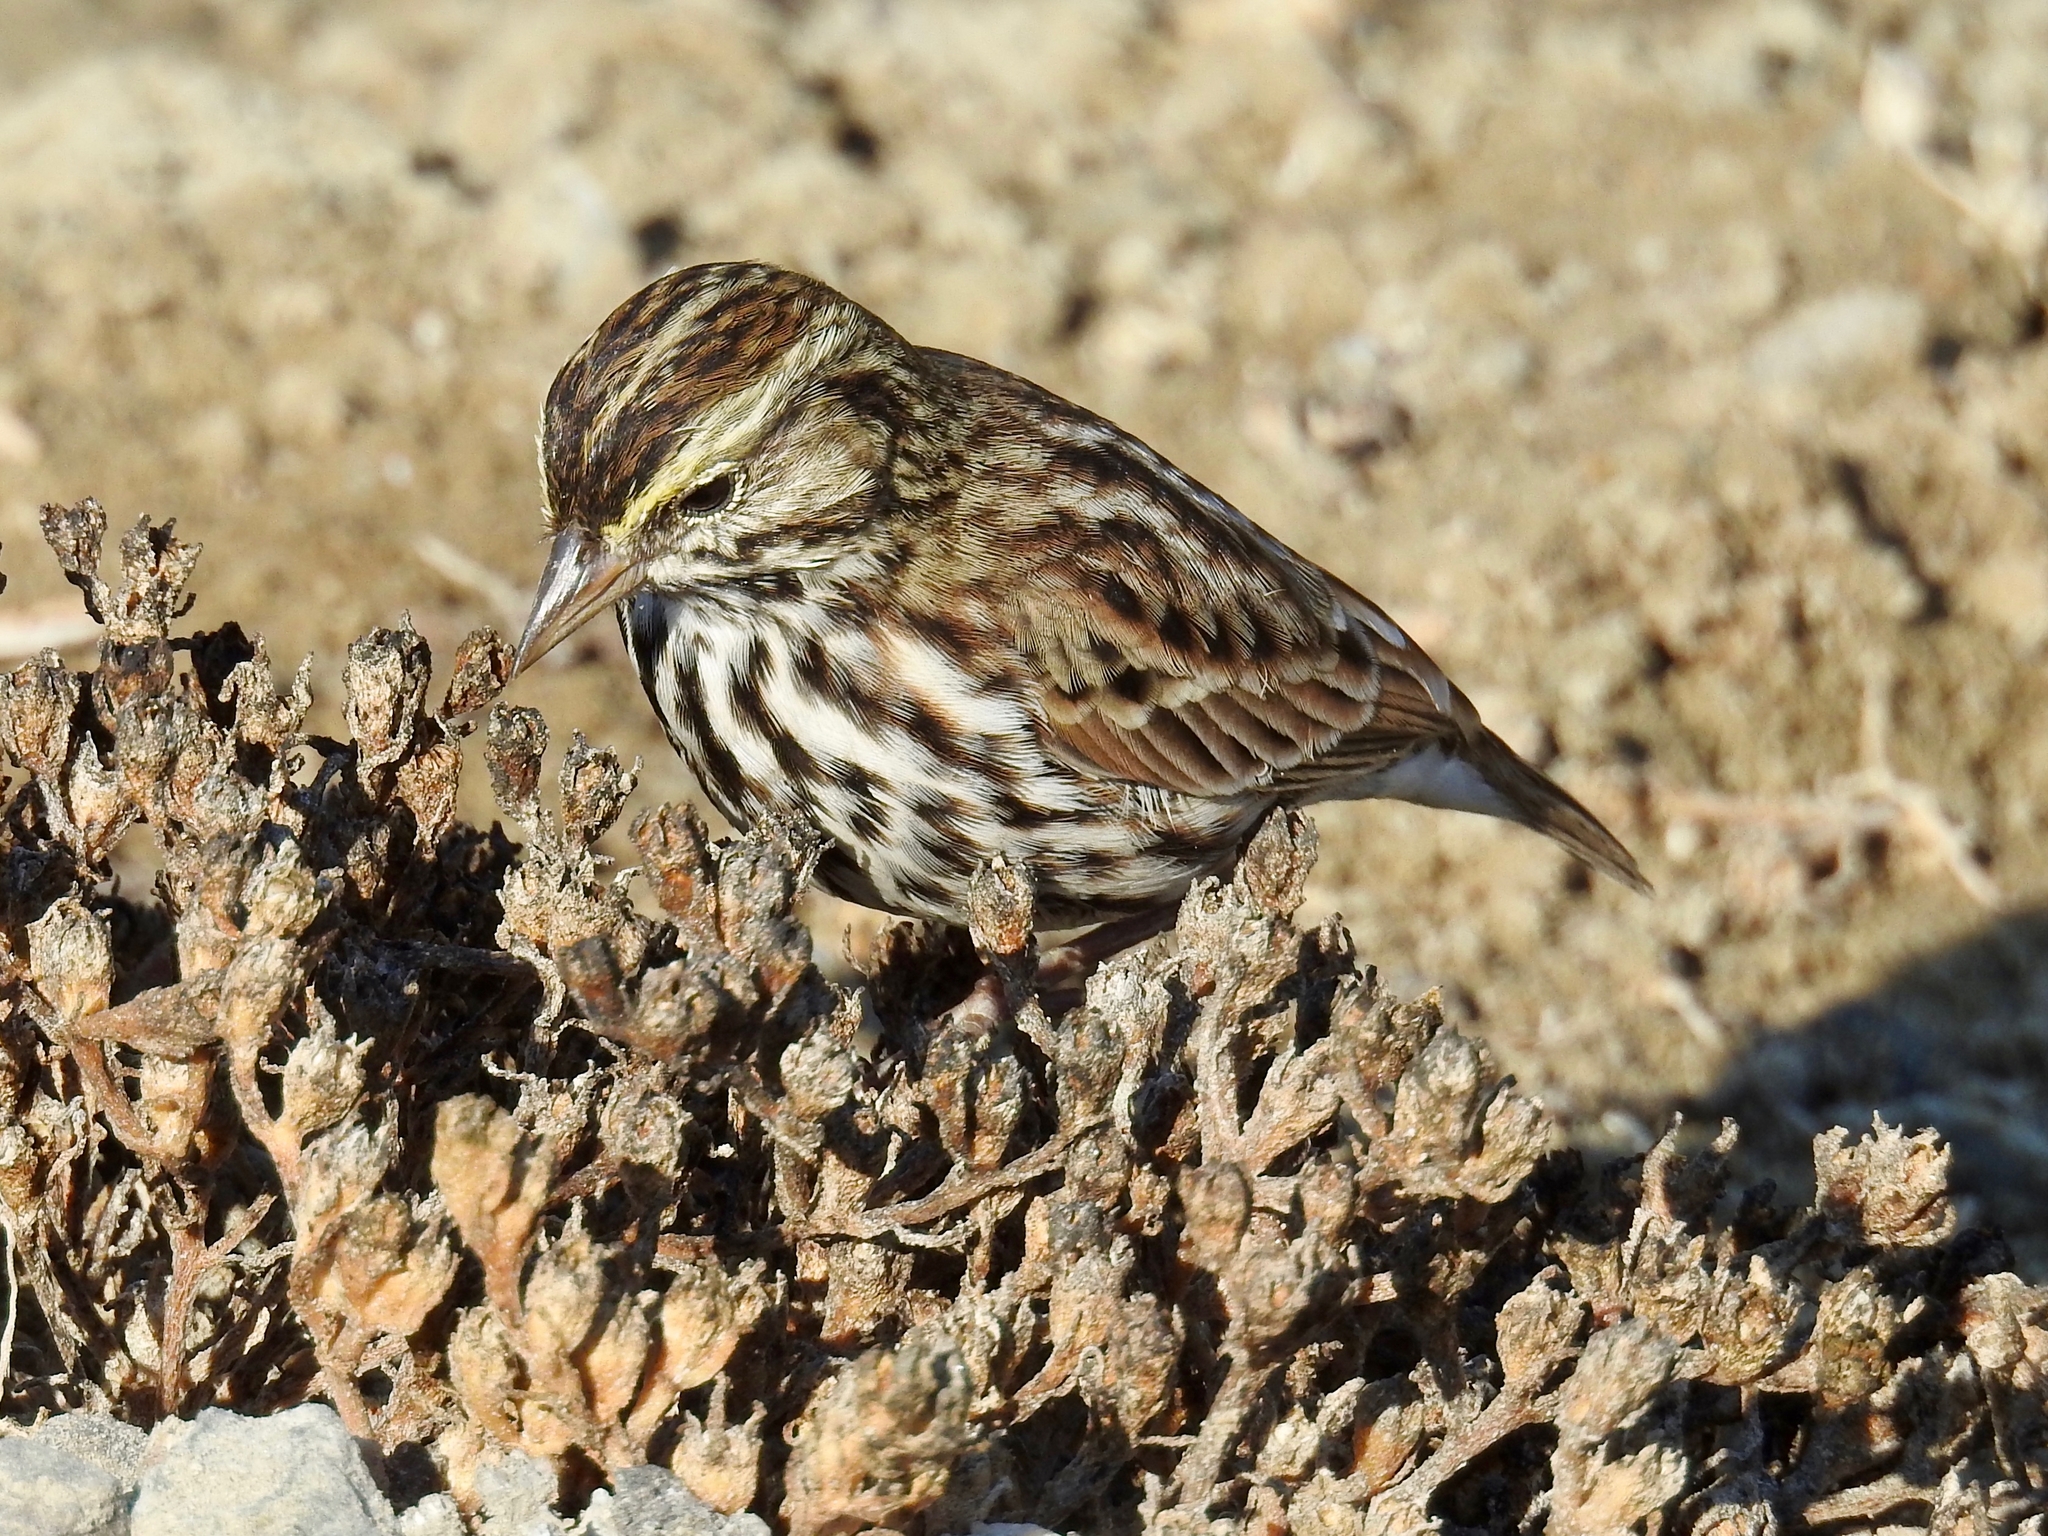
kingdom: Animalia
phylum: Chordata
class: Aves
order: Passeriformes
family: Passerellidae
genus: Passerculus
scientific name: Passerculus sandwichensis
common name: Savannah sparrow
